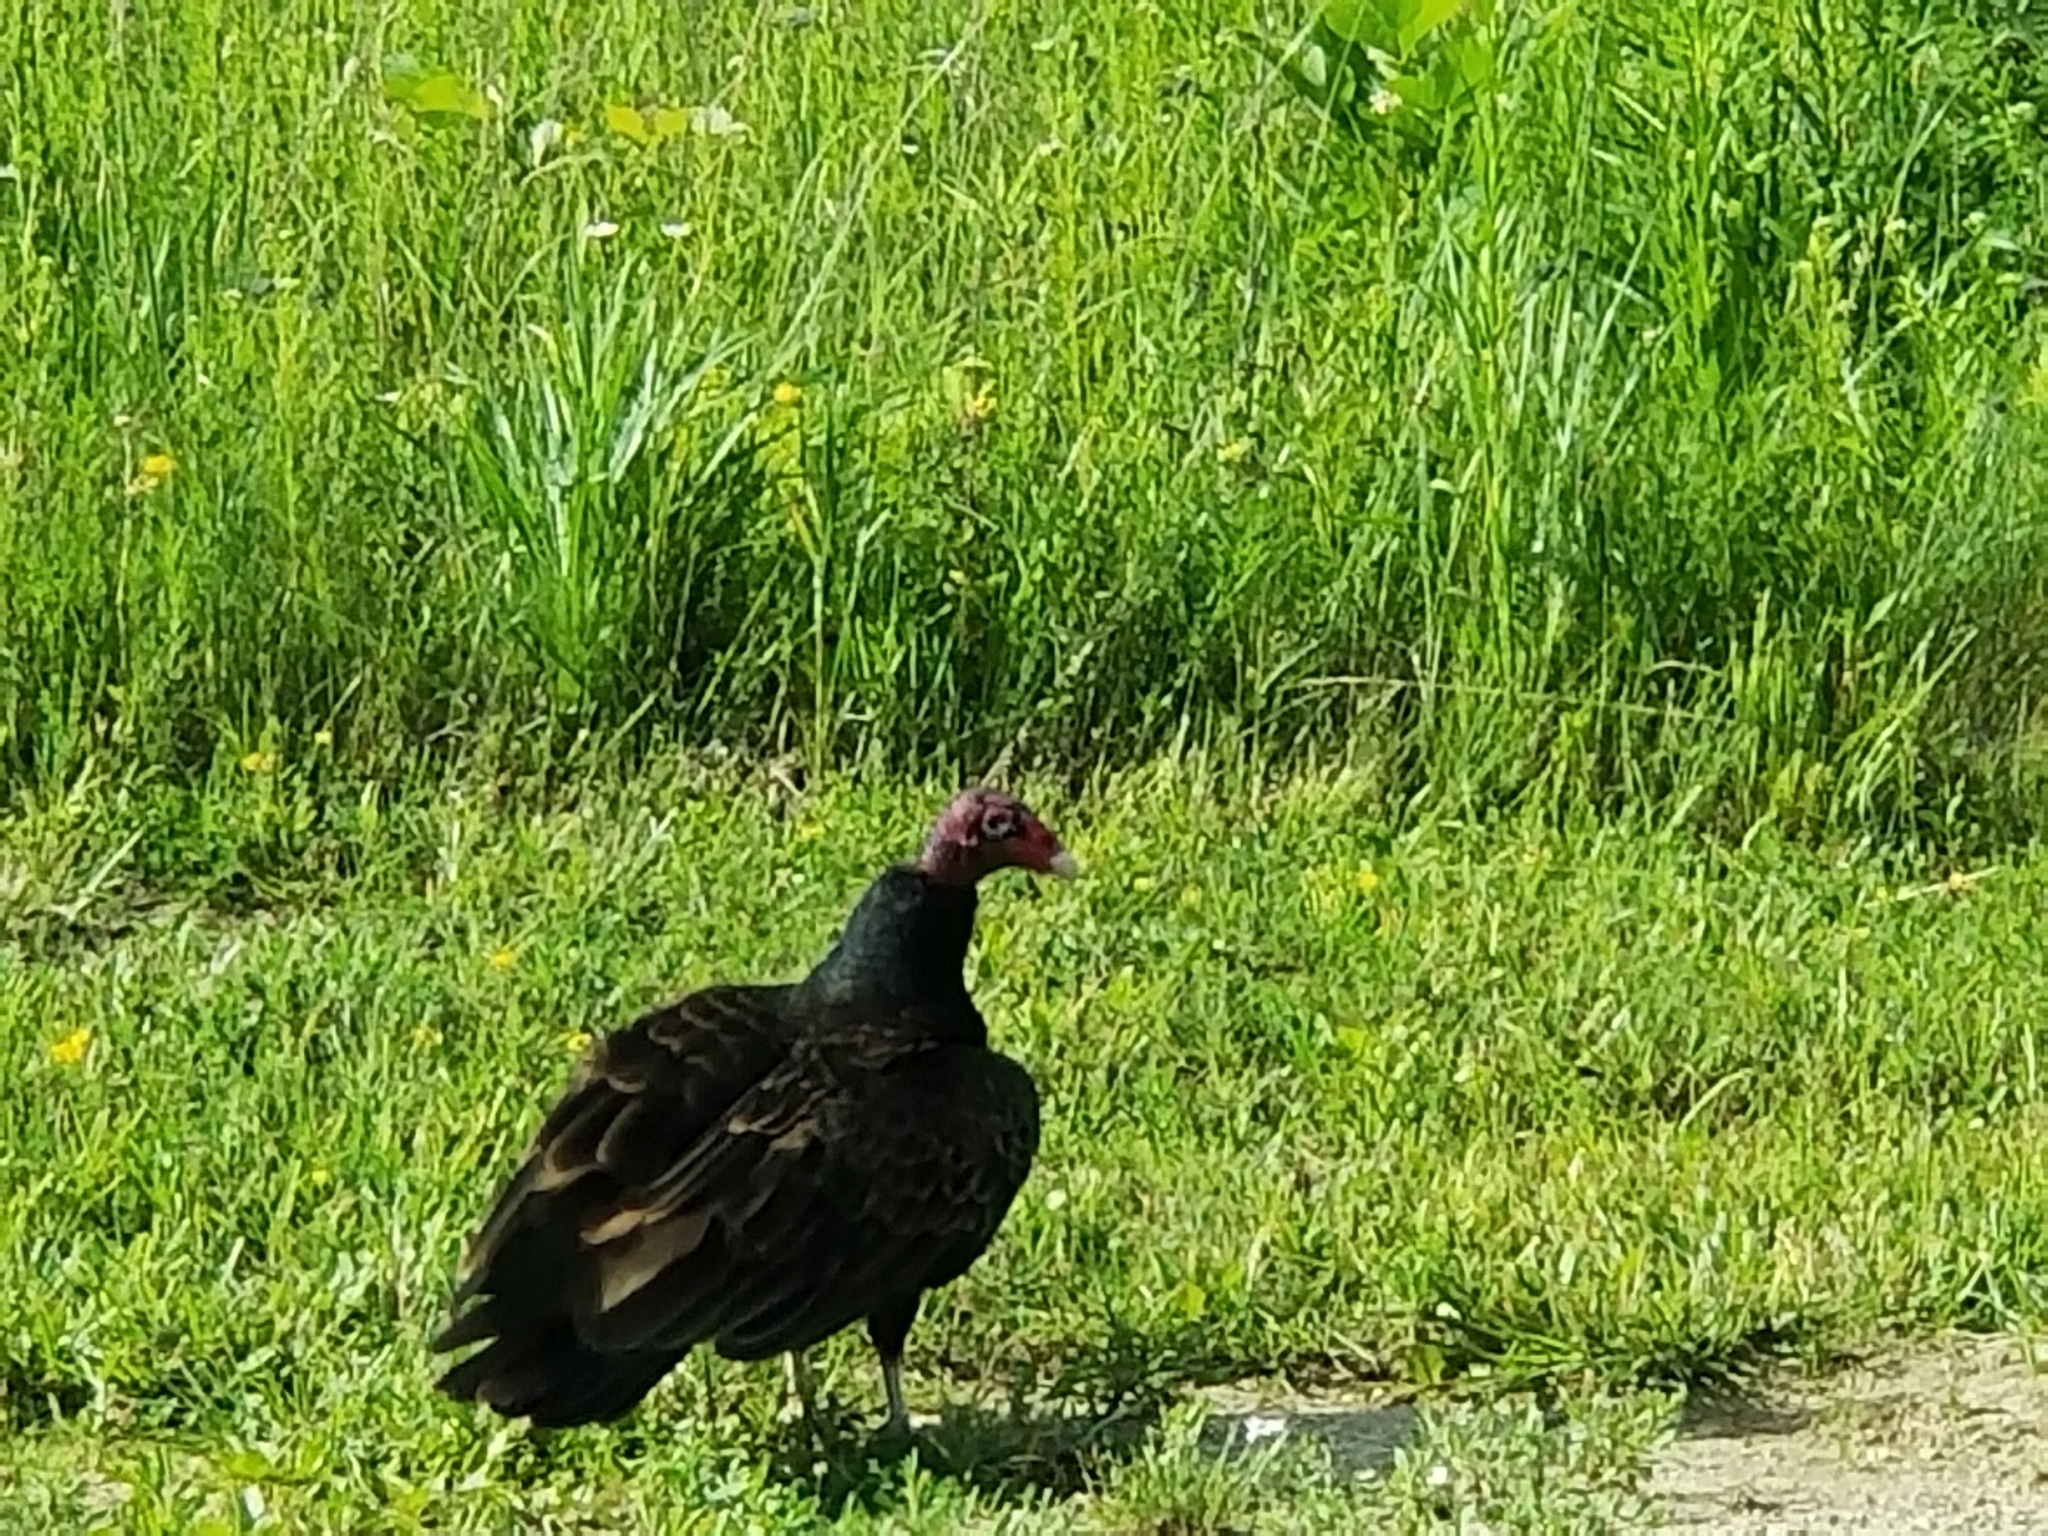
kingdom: Animalia
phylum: Chordata
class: Aves
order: Accipitriformes
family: Cathartidae
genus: Cathartes
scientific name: Cathartes aura
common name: Turkey vulture
